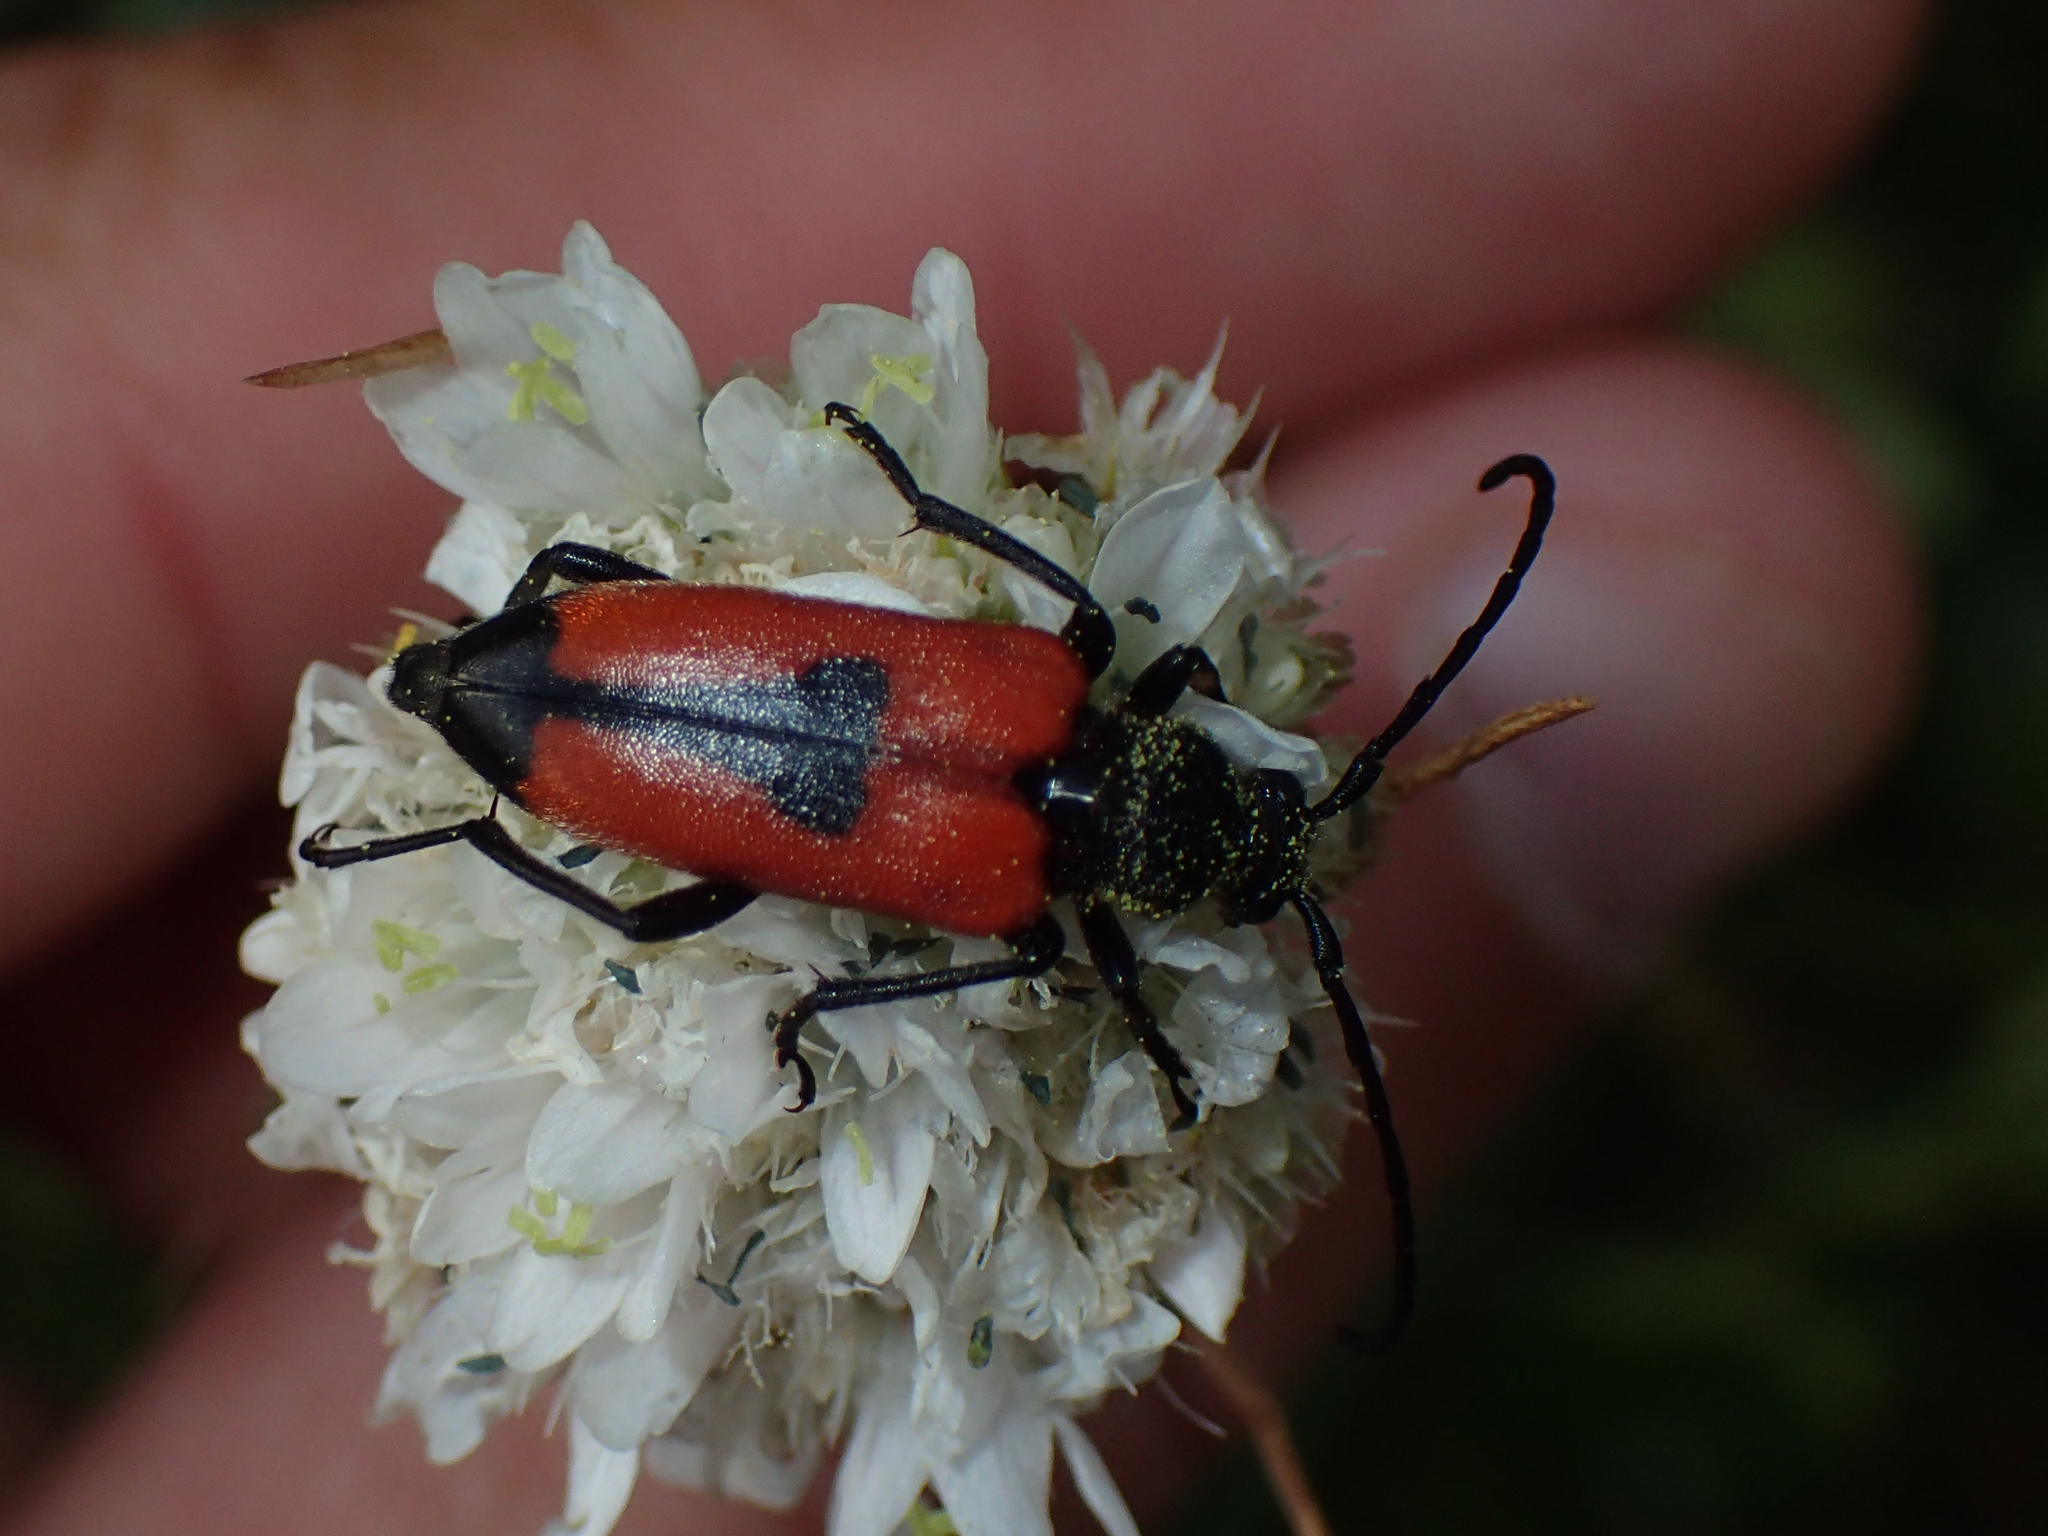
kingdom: Animalia
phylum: Arthropoda
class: Insecta
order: Coleoptera
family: Cerambycidae
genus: Stictoleptura
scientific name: Stictoleptura cordigera
